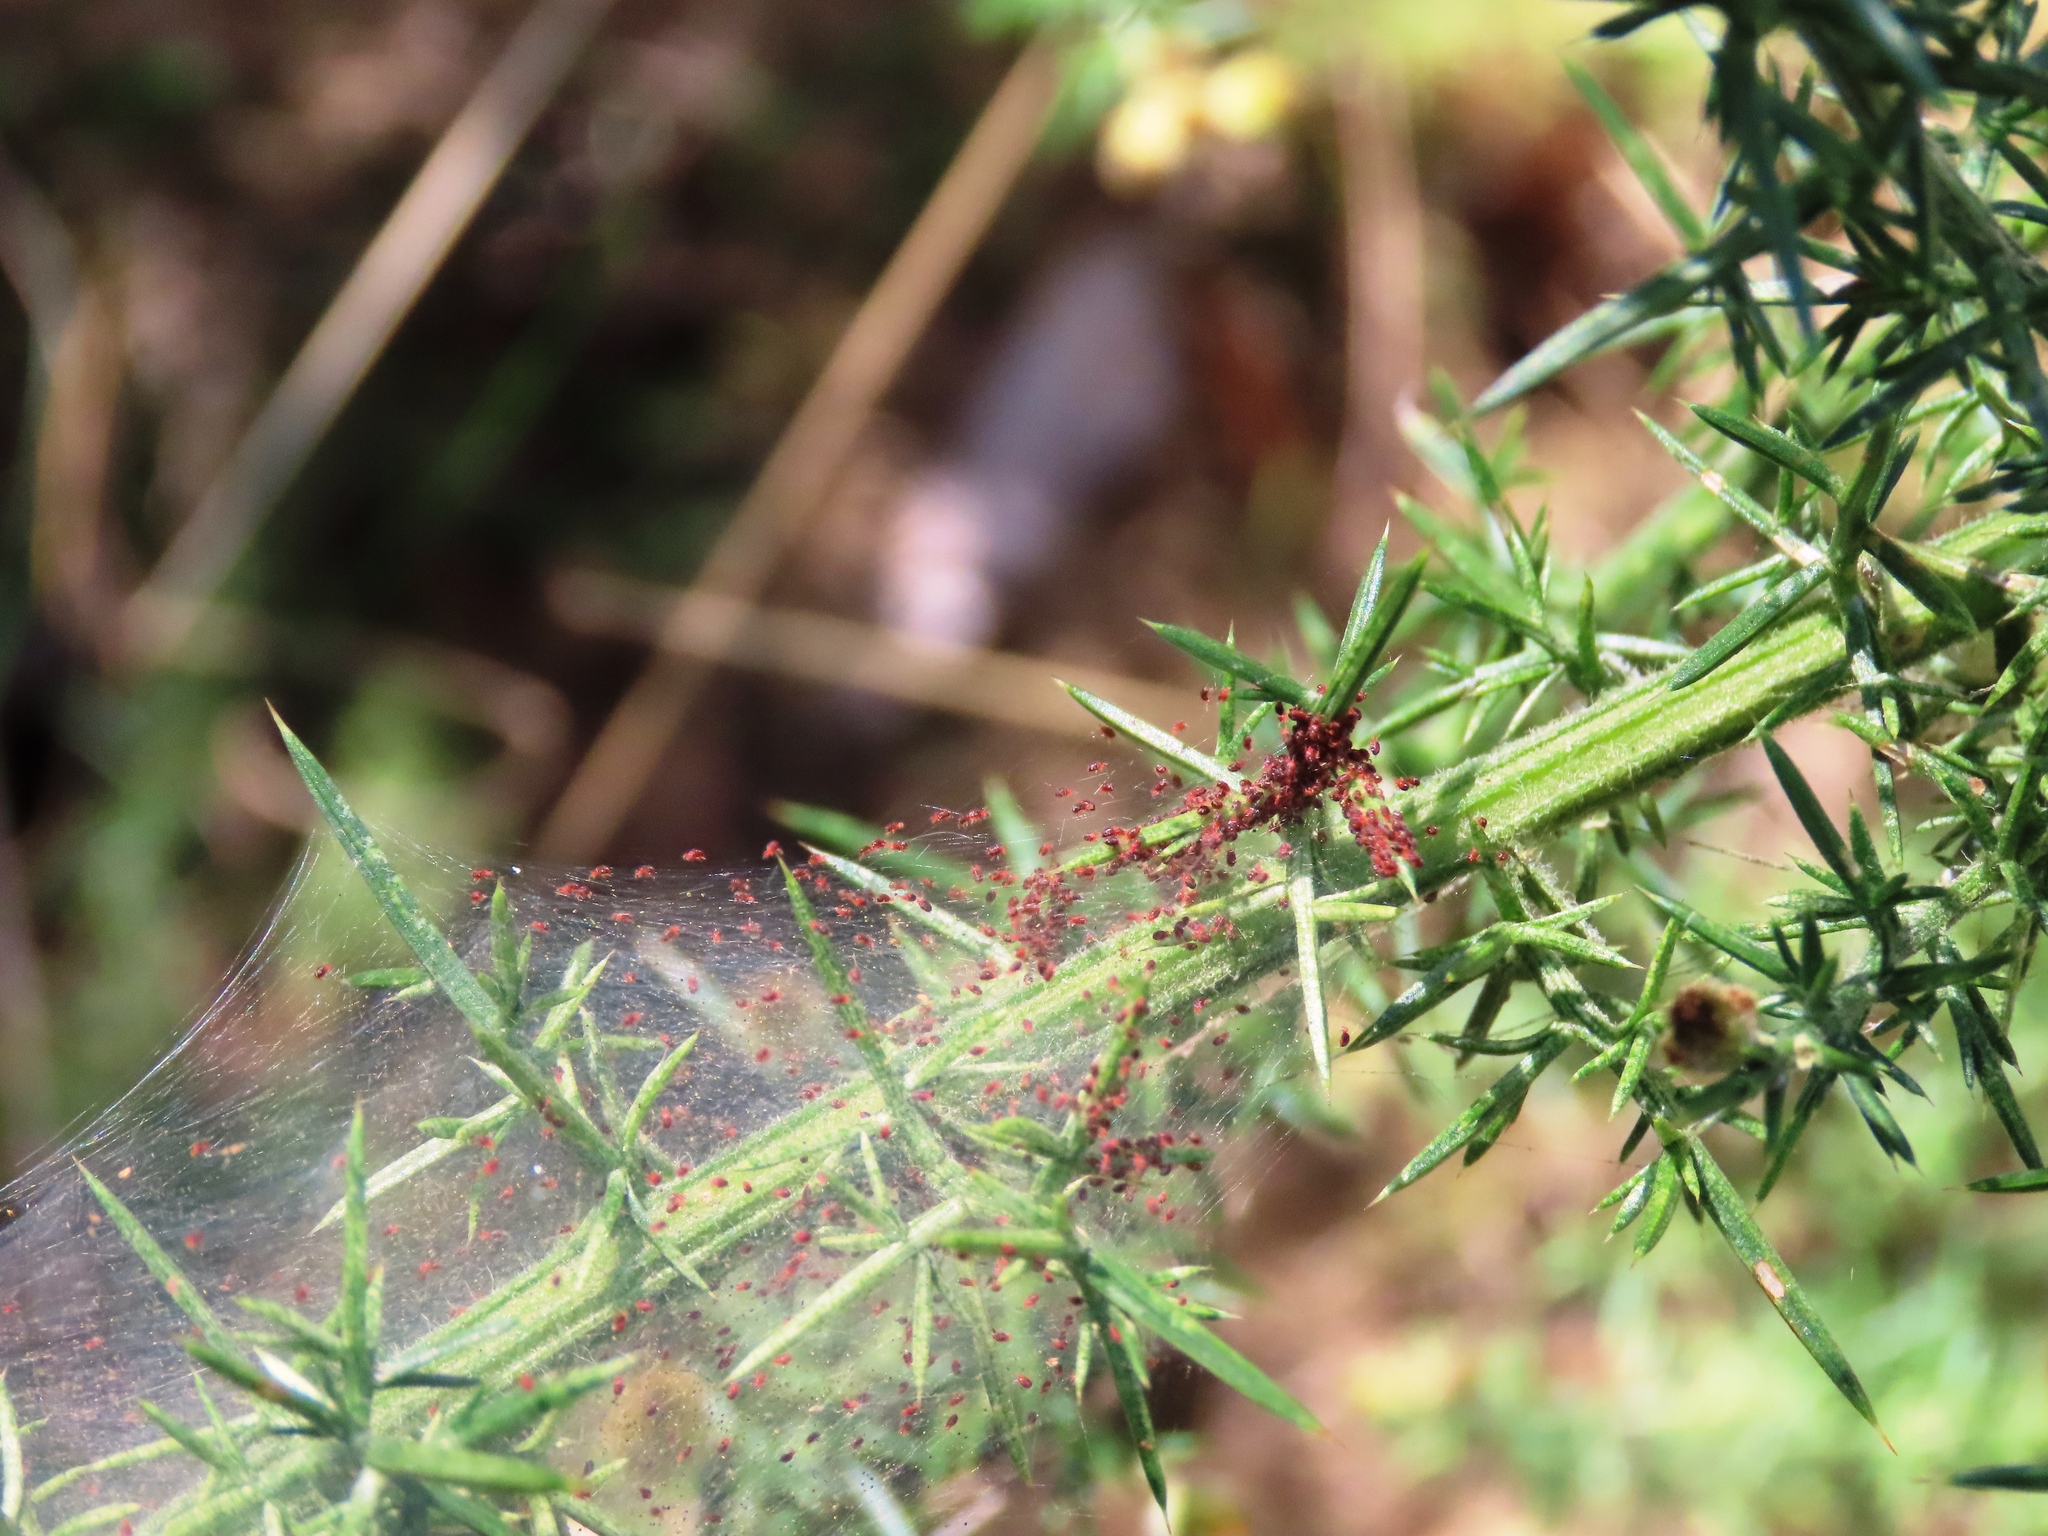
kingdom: Animalia
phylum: Arthropoda
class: Arachnida
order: Trombidiformes
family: Tetranychidae
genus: Tetranychus
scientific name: Tetranychus lintearius
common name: Gorse spider mite
